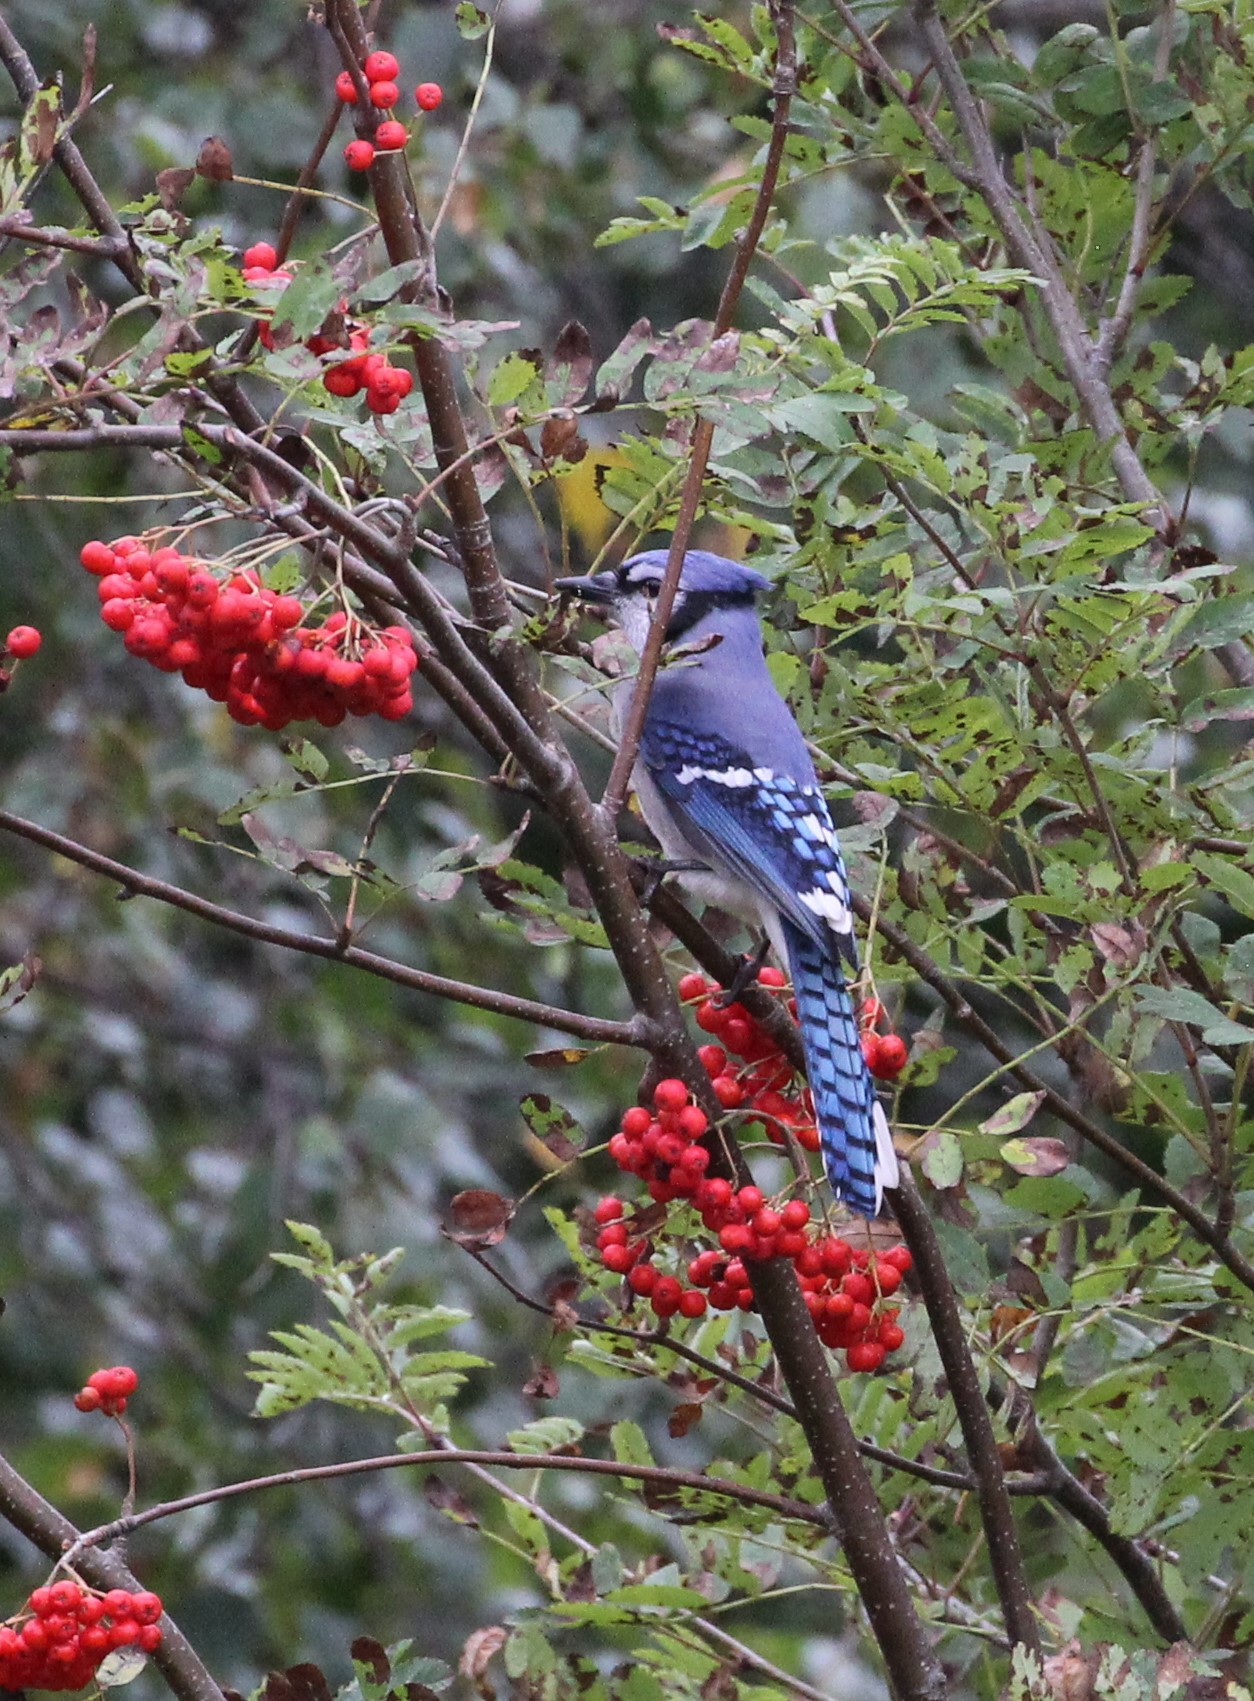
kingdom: Animalia
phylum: Chordata
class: Aves
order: Passeriformes
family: Corvidae
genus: Cyanocitta
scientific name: Cyanocitta cristata
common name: Blue jay
